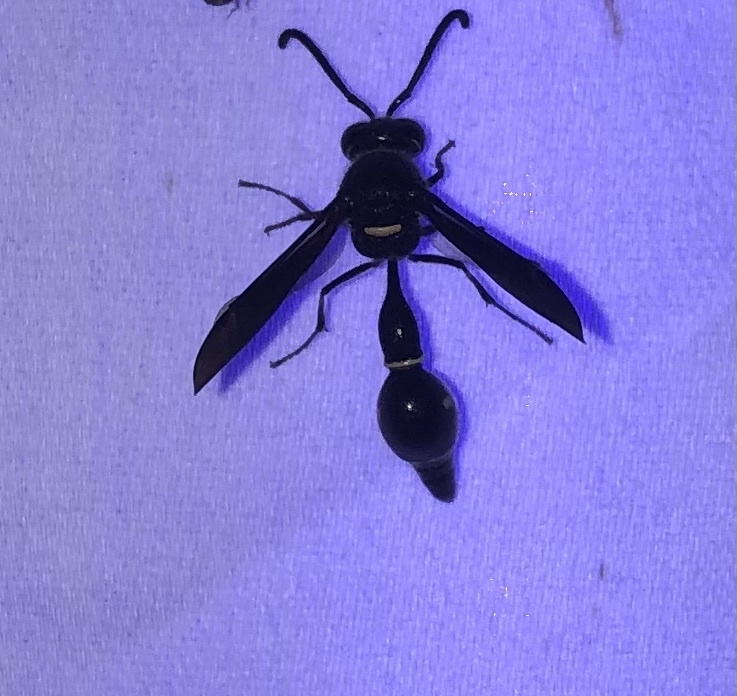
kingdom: Animalia
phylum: Arthropoda
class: Insecta
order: Hymenoptera
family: Vespidae
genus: Eumenes
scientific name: Eumenes fraternus
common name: Fraternal potter wasp
